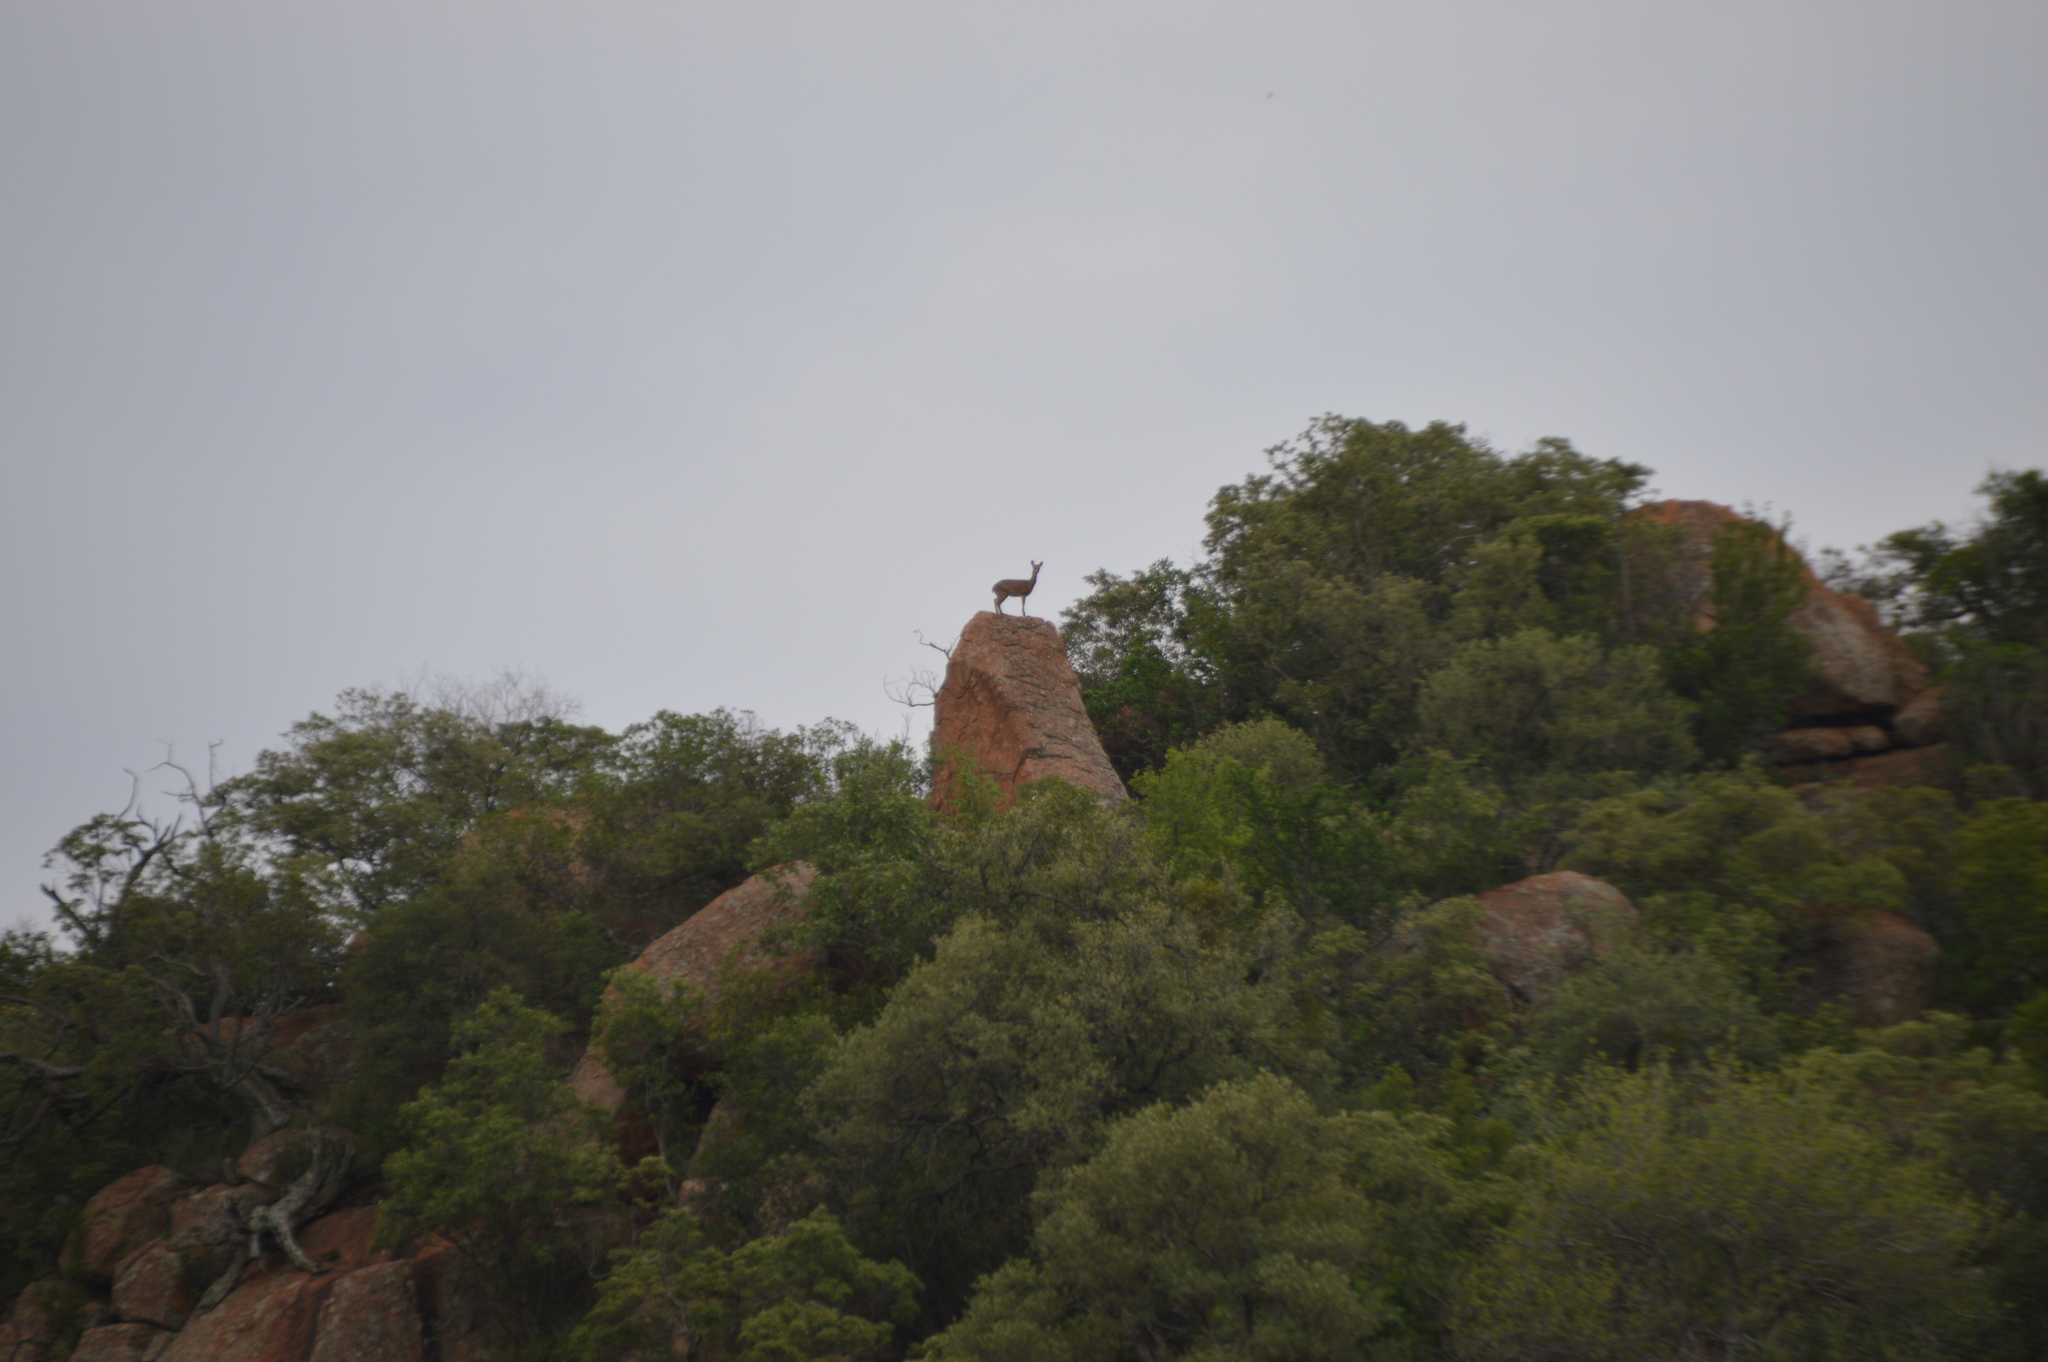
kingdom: Animalia
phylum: Chordata
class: Mammalia
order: Artiodactyla
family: Bovidae
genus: Oreotragus
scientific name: Oreotragus oreotragus
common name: Klipspringer
